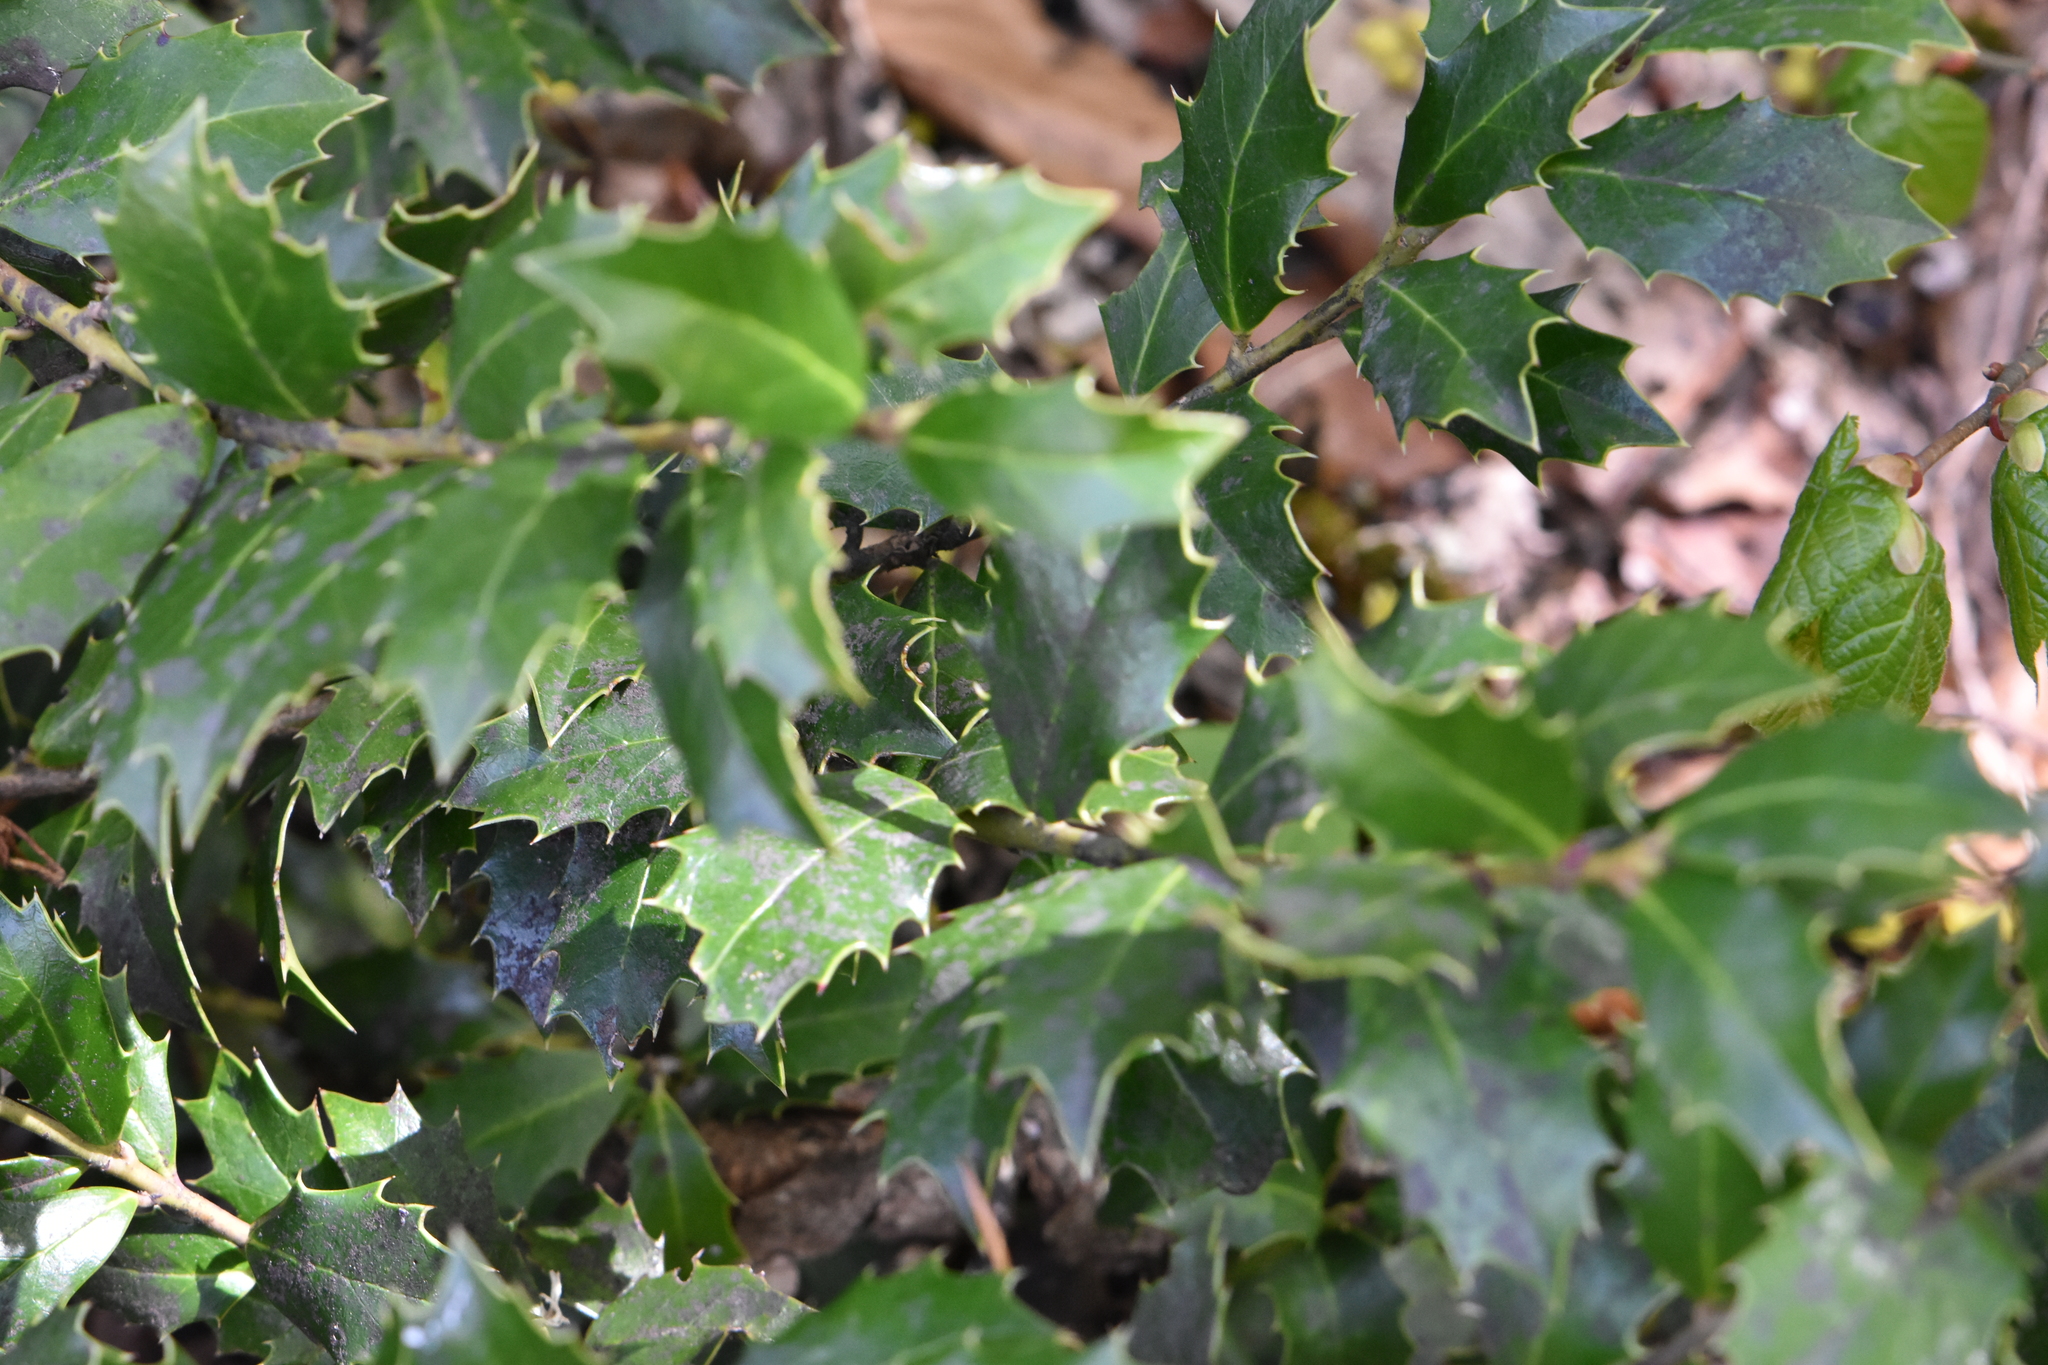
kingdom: Plantae
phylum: Tracheophyta
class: Magnoliopsida
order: Aquifoliales
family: Aquifoliaceae
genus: Ilex
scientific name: Ilex colchica
